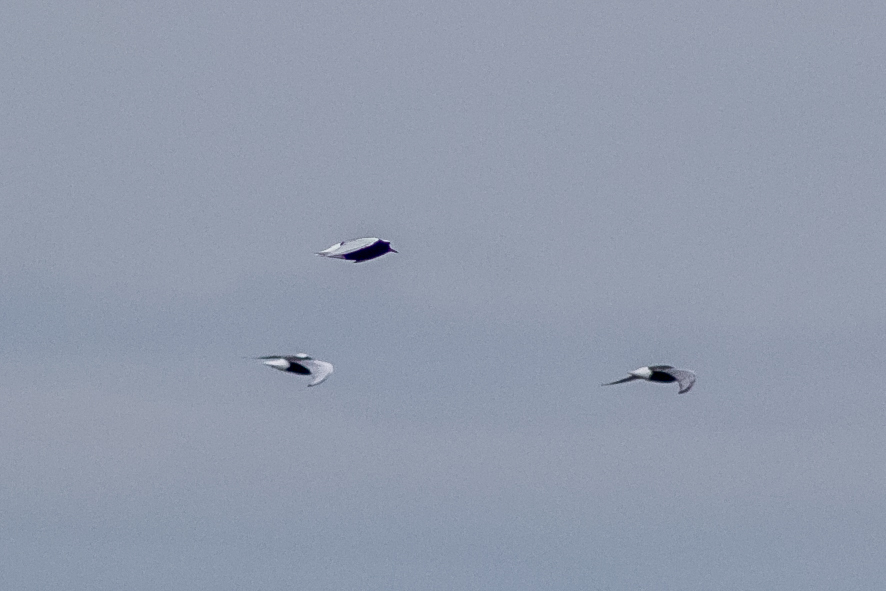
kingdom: Animalia
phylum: Chordata
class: Aves
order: Charadriiformes
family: Laridae
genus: Chlidonias
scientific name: Chlidonias niger
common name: Black tern
